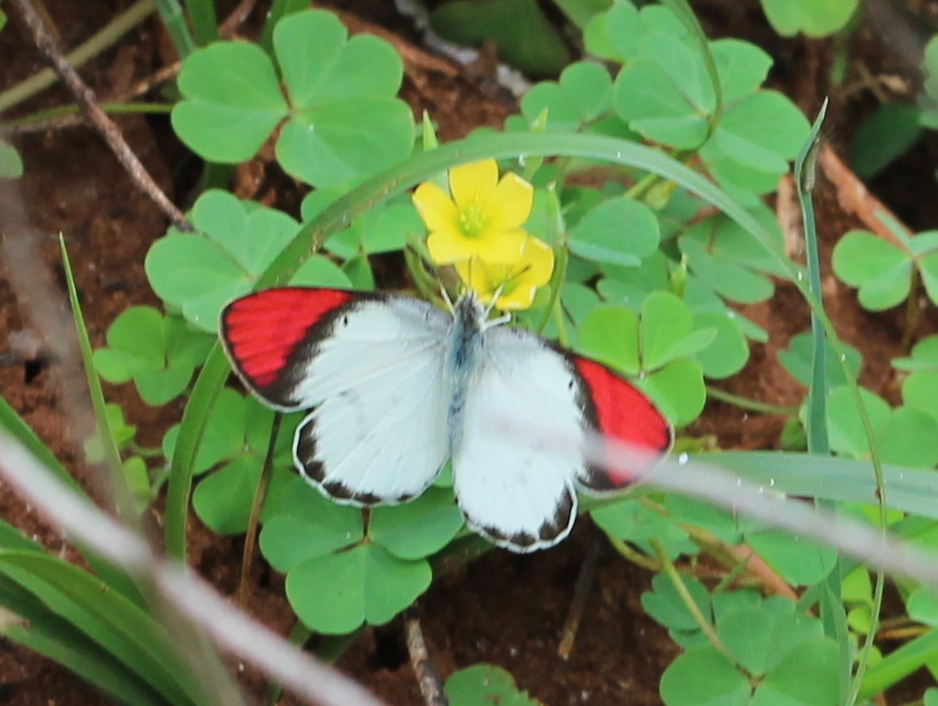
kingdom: Animalia
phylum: Arthropoda
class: Insecta
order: Lepidoptera
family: Pieridae
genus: Colotis
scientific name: Colotis danae
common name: Crimson tip
